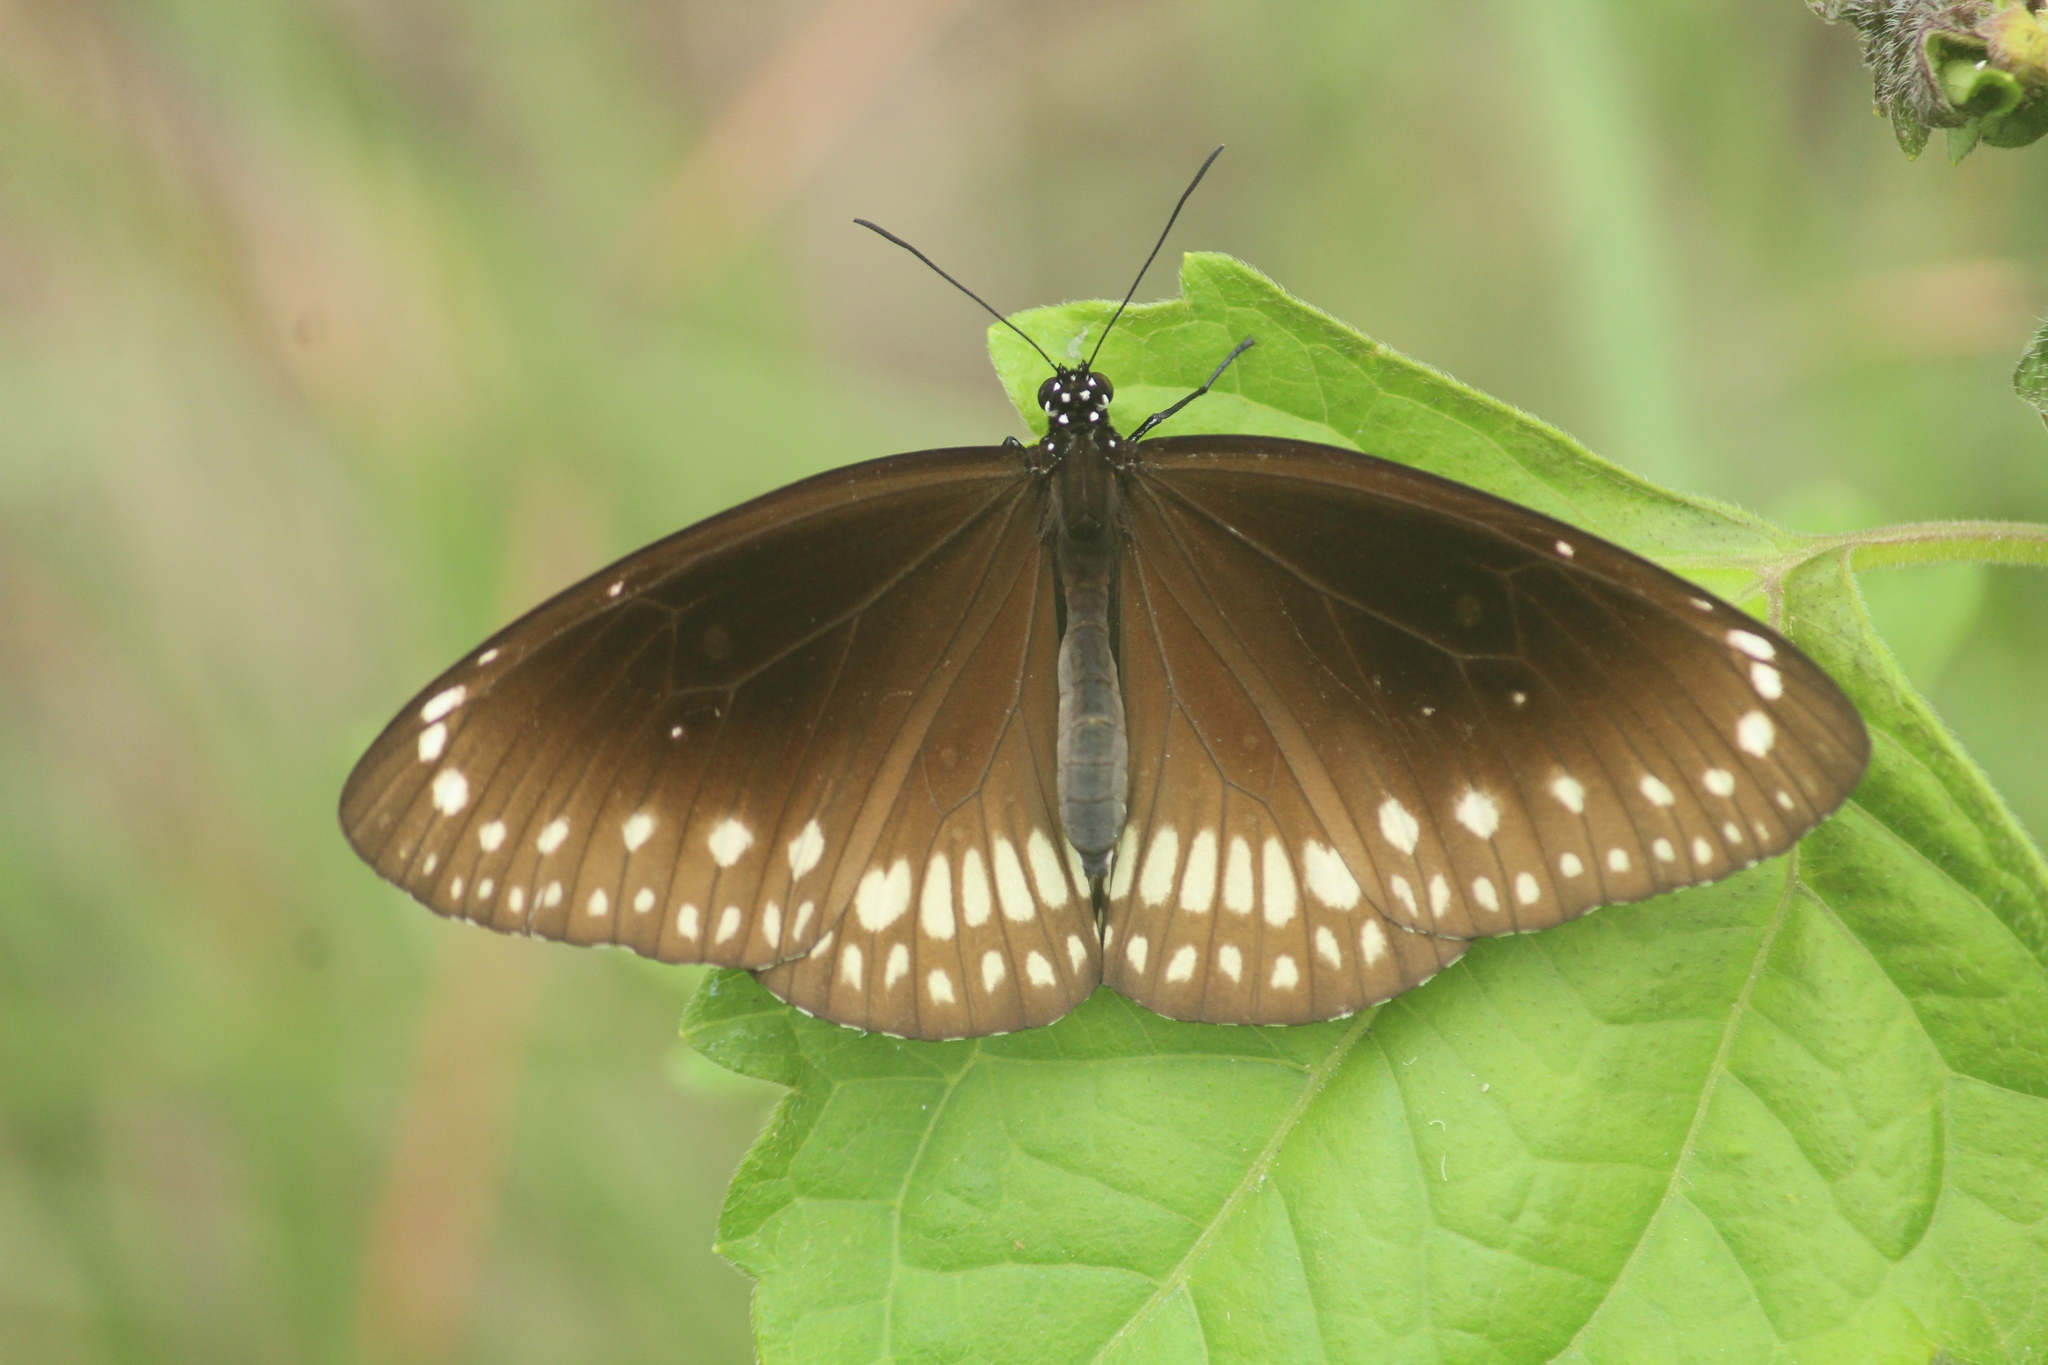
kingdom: Animalia
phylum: Arthropoda
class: Insecta
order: Lepidoptera
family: Nymphalidae
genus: Euploea
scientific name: Euploea core
